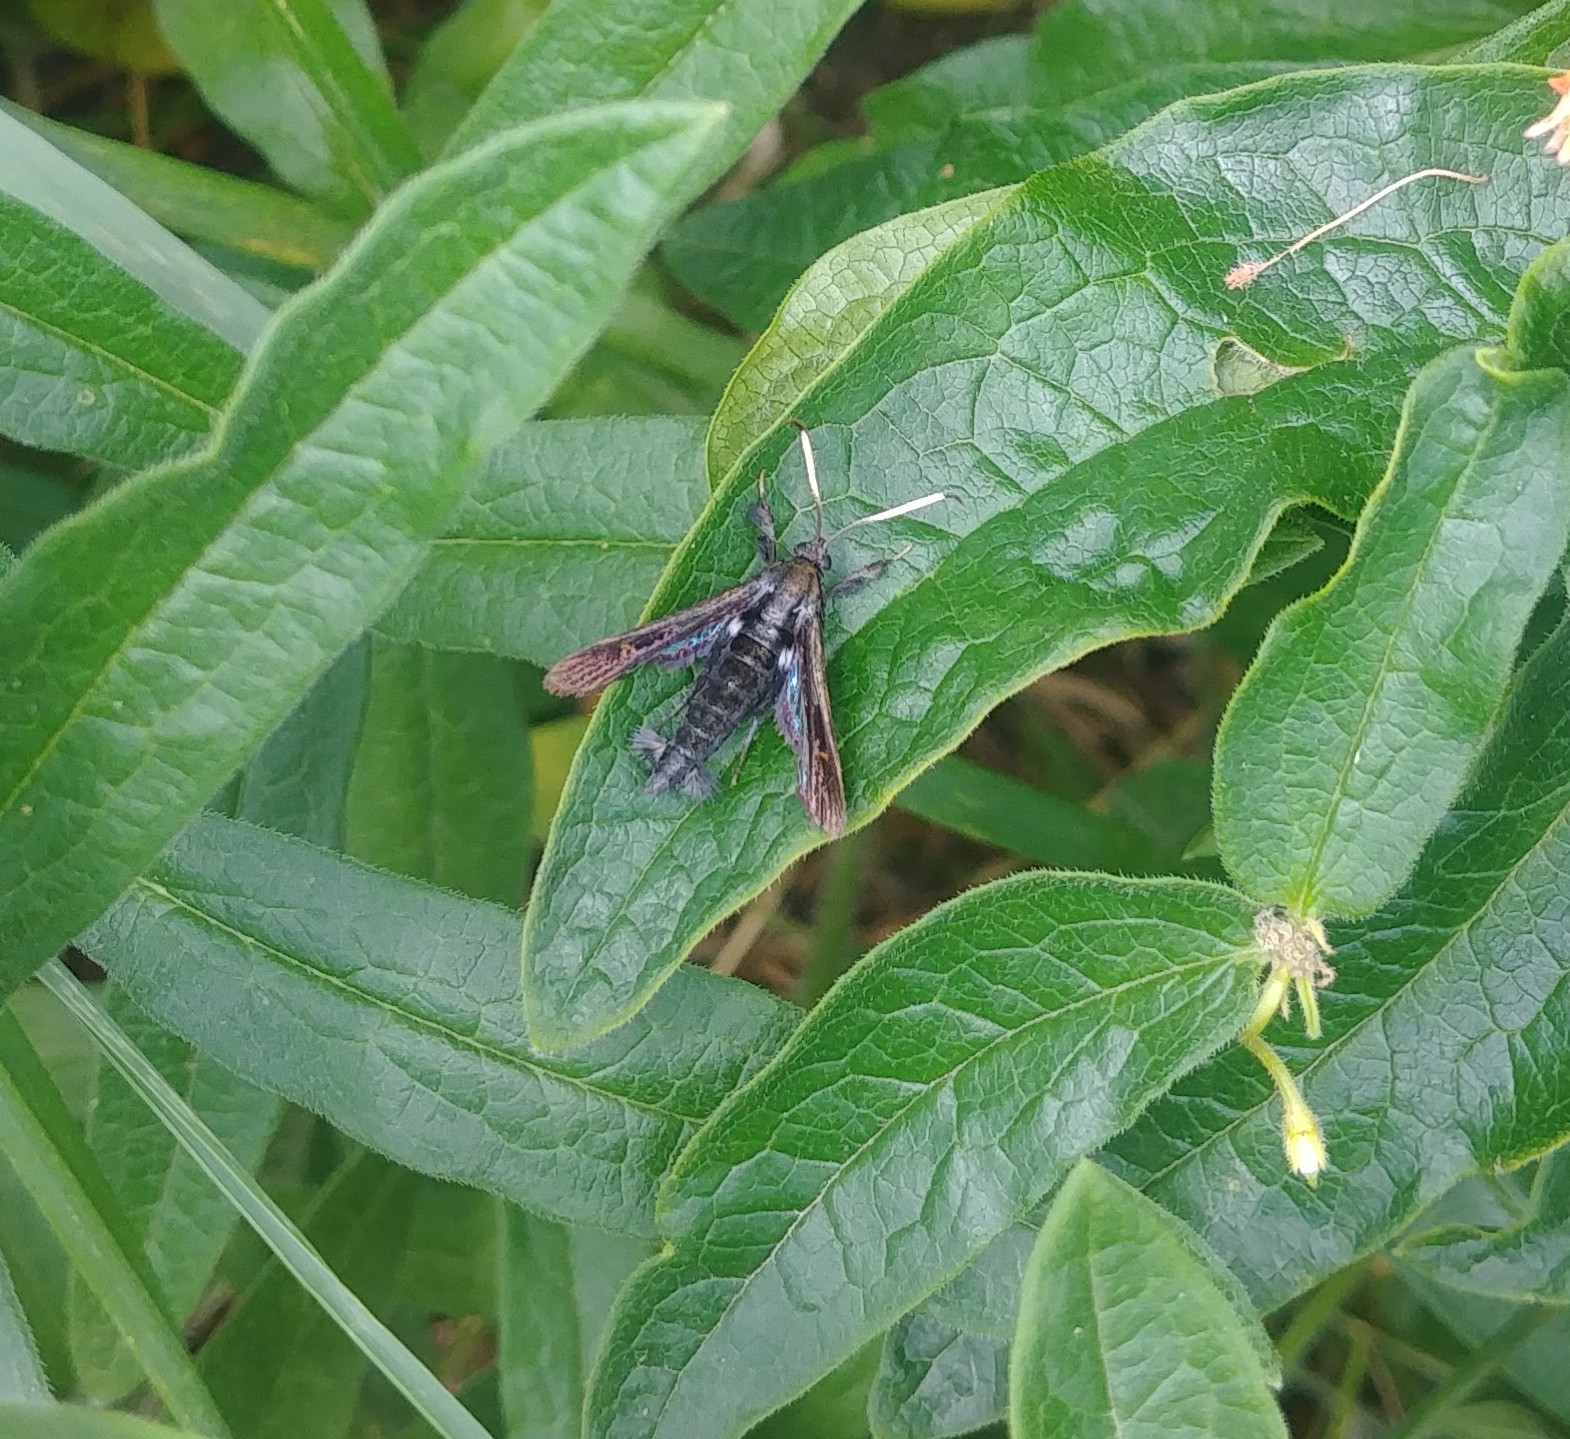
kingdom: Animalia
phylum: Arthropoda
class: Insecta
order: Lepidoptera
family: Sesiidae
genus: Albuna
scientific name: Albuna fraxini
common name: Virginia creeper clearwing
